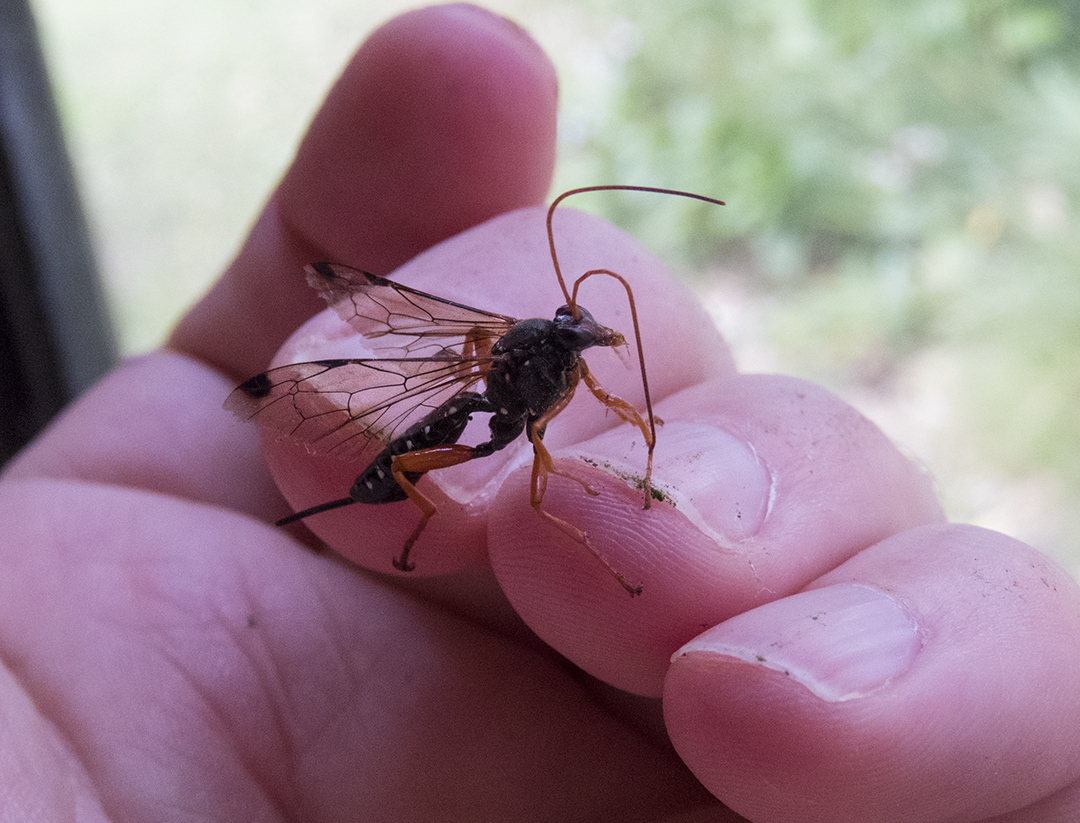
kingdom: Animalia
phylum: Arthropoda
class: Insecta
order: Hymenoptera
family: Ichneumonidae
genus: Echthromorpha
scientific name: Echthromorpha intricatoria
